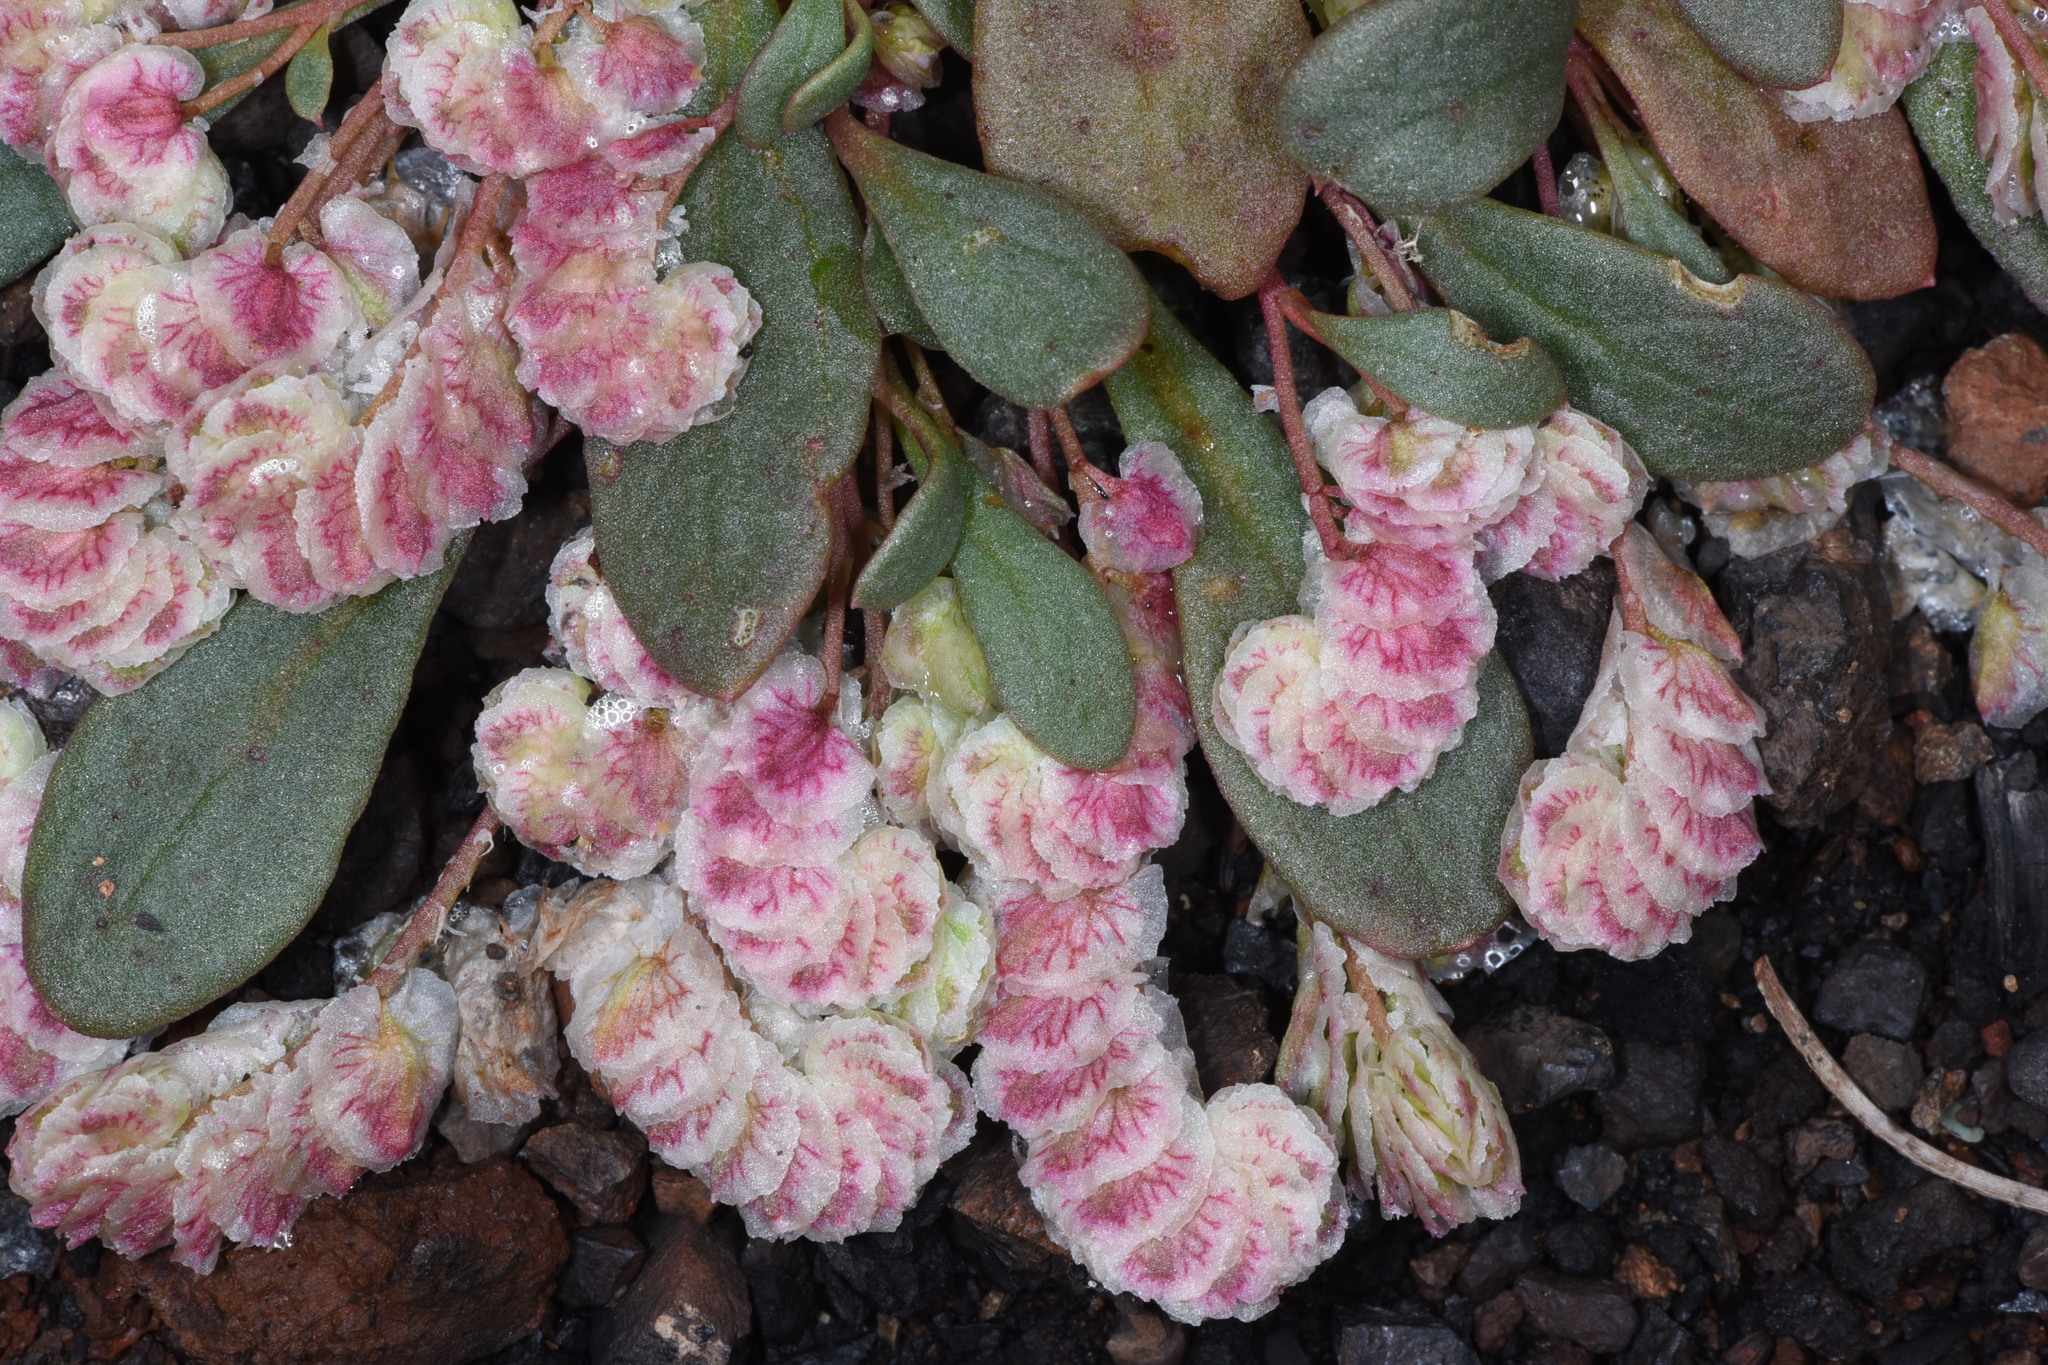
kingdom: Plantae
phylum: Tracheophyta
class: Magnoliopsida
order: Caryophyllales
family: Montiaceae
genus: Calyptridium
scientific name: Calyptridium quadripetalum
